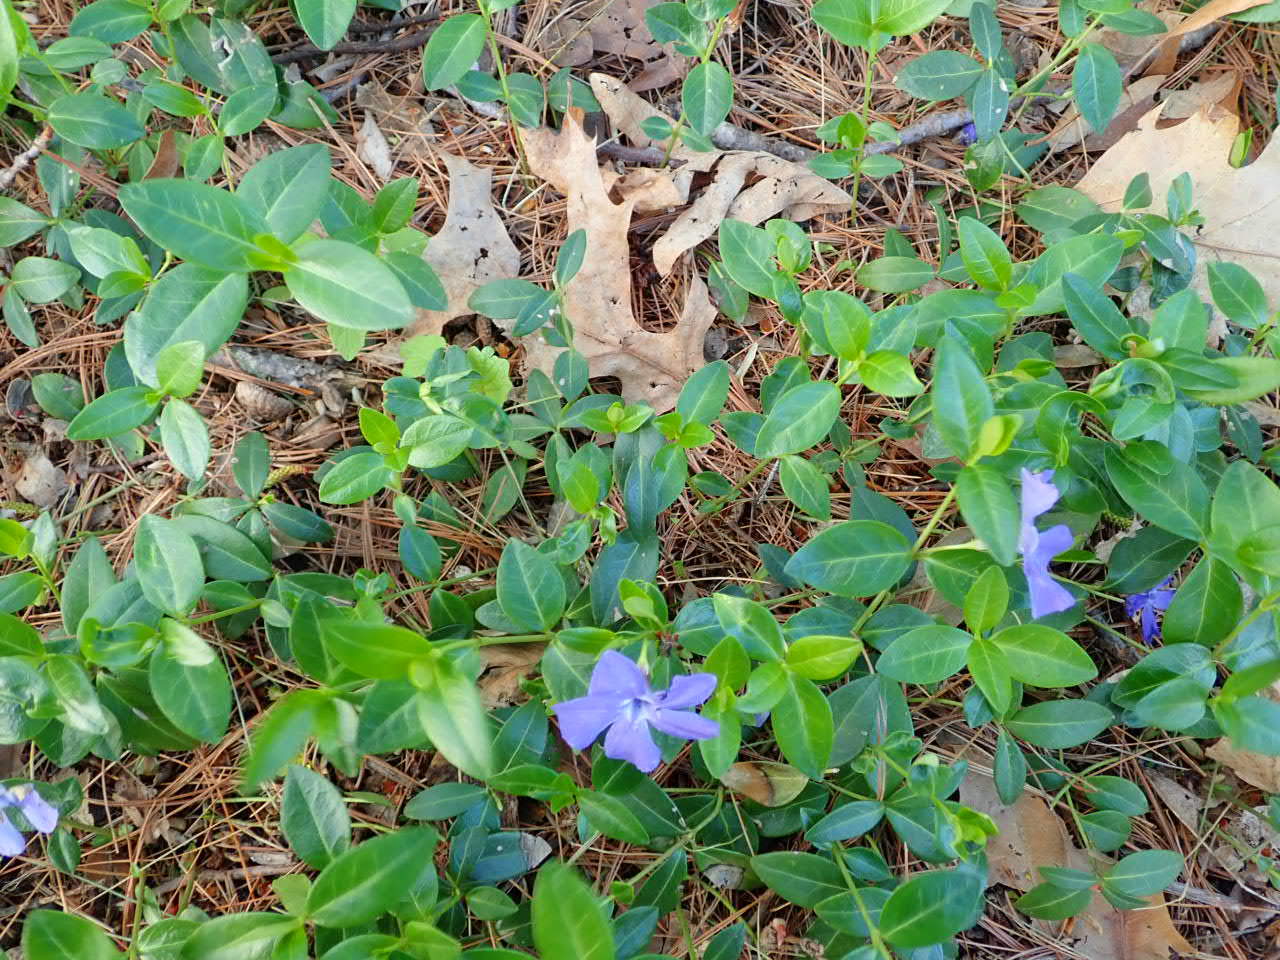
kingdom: Plantae
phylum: Tracheophyta
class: Magnoliopsida
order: Gentianales
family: Apocynaceae
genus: Vinca
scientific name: Vinca minor
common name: Lesser periwinkle
